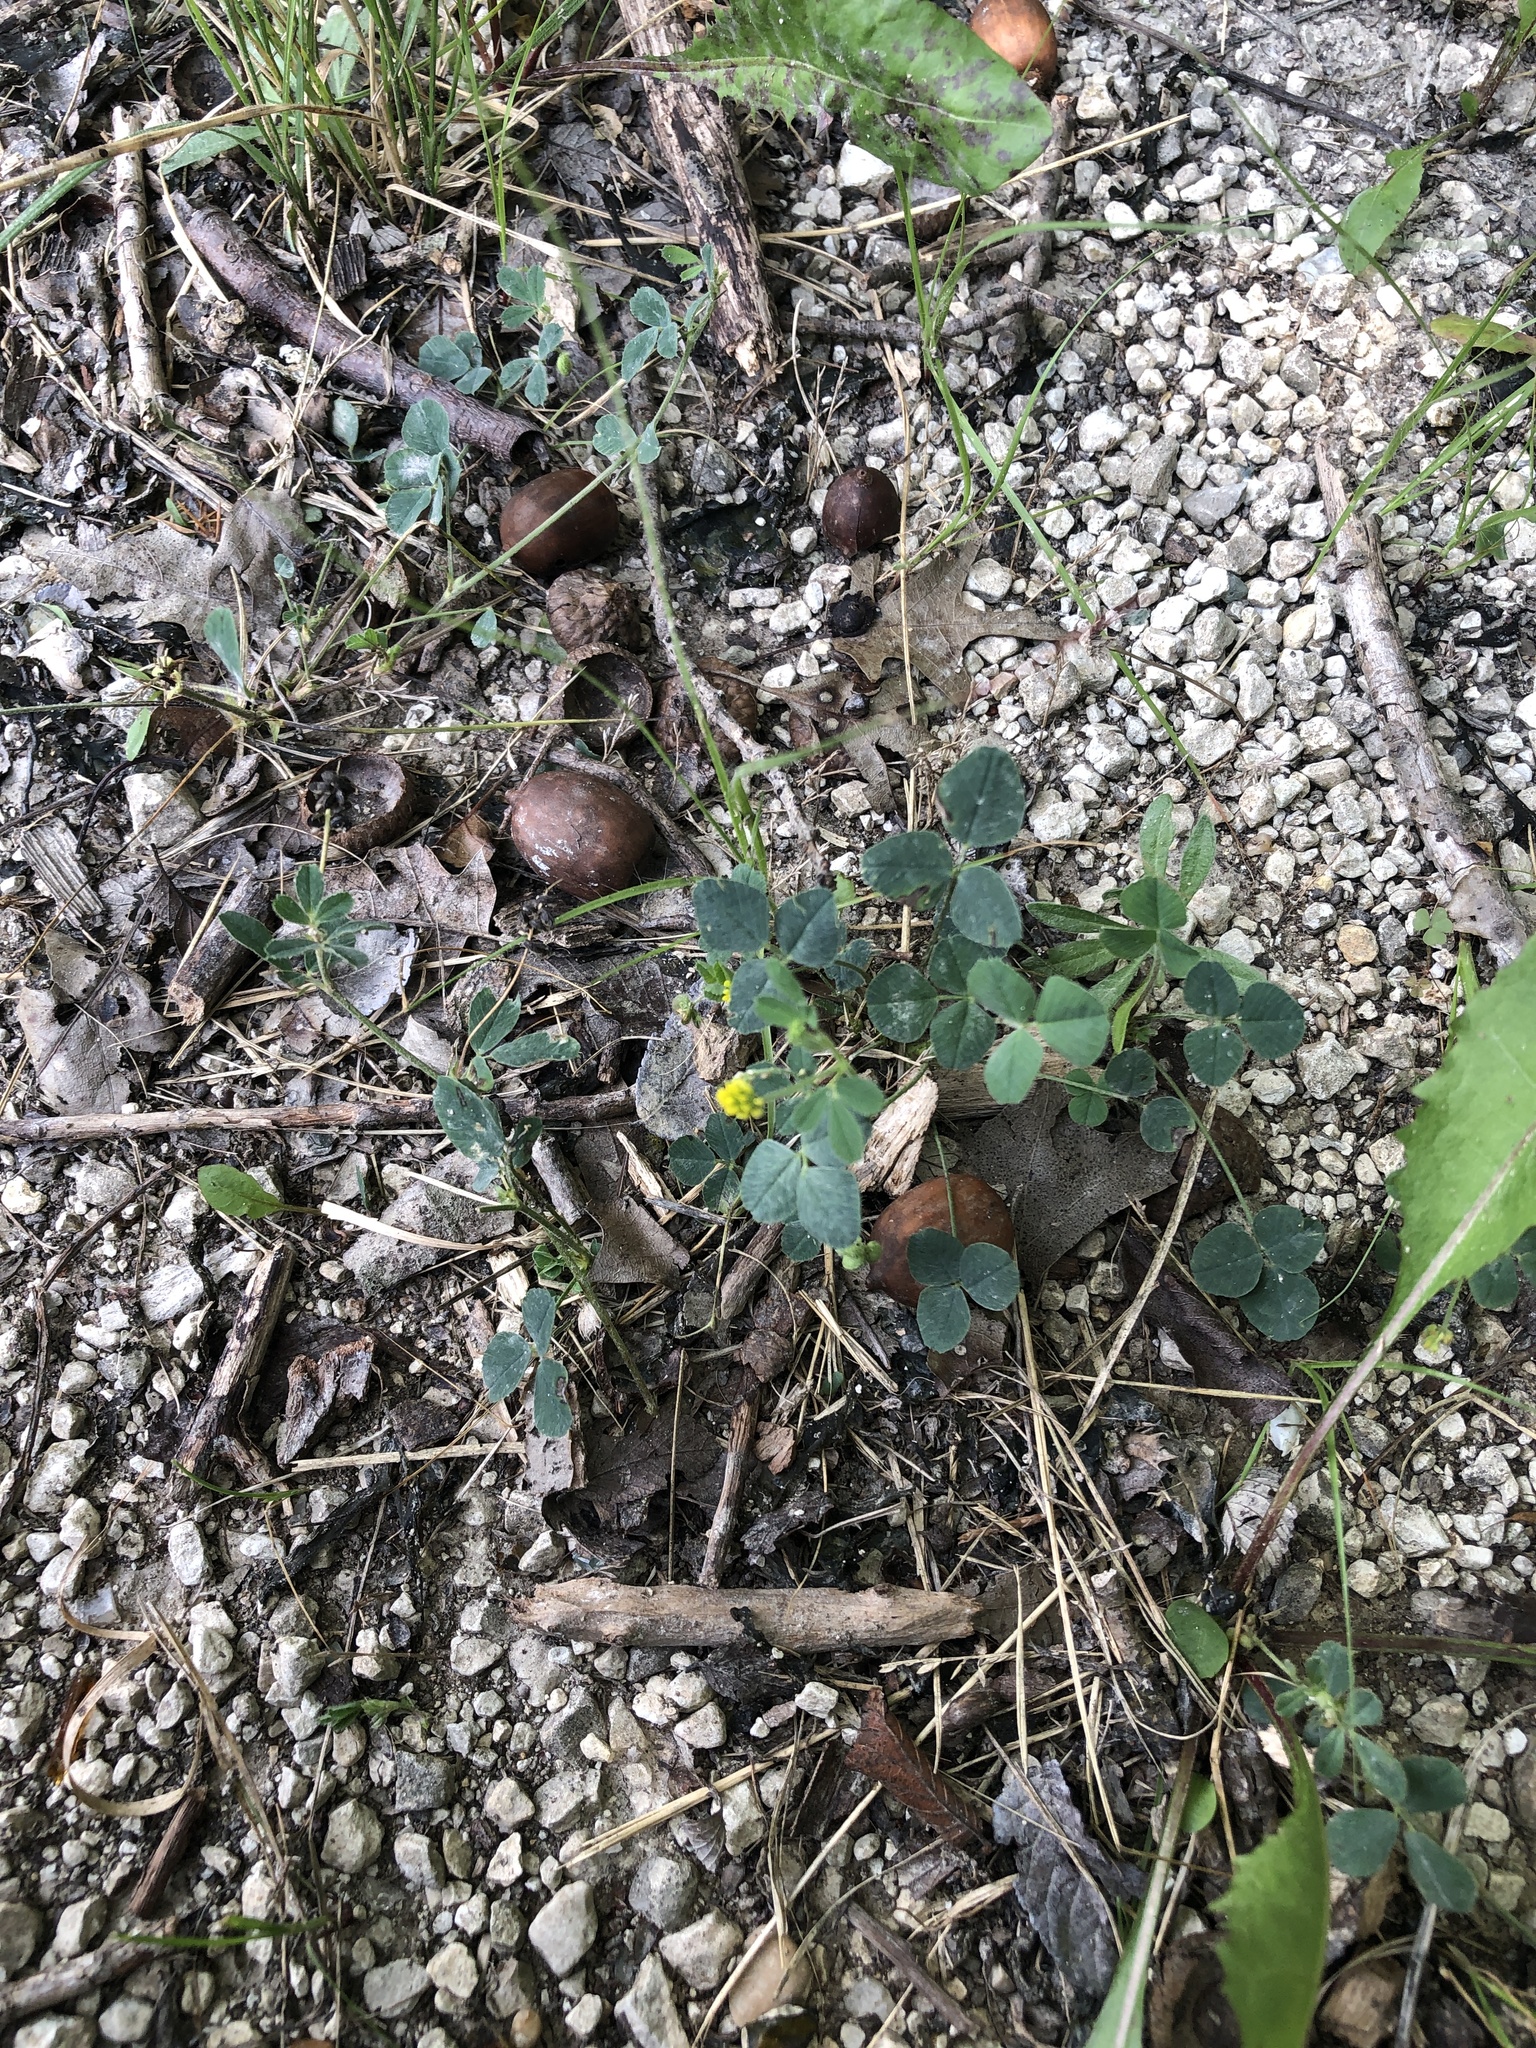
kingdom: Plantae
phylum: Tracheophyta
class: Magnoliopsida
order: Fabales
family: Fabaceae
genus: Medicago
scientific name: Medicago lupulina
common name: Black medick
